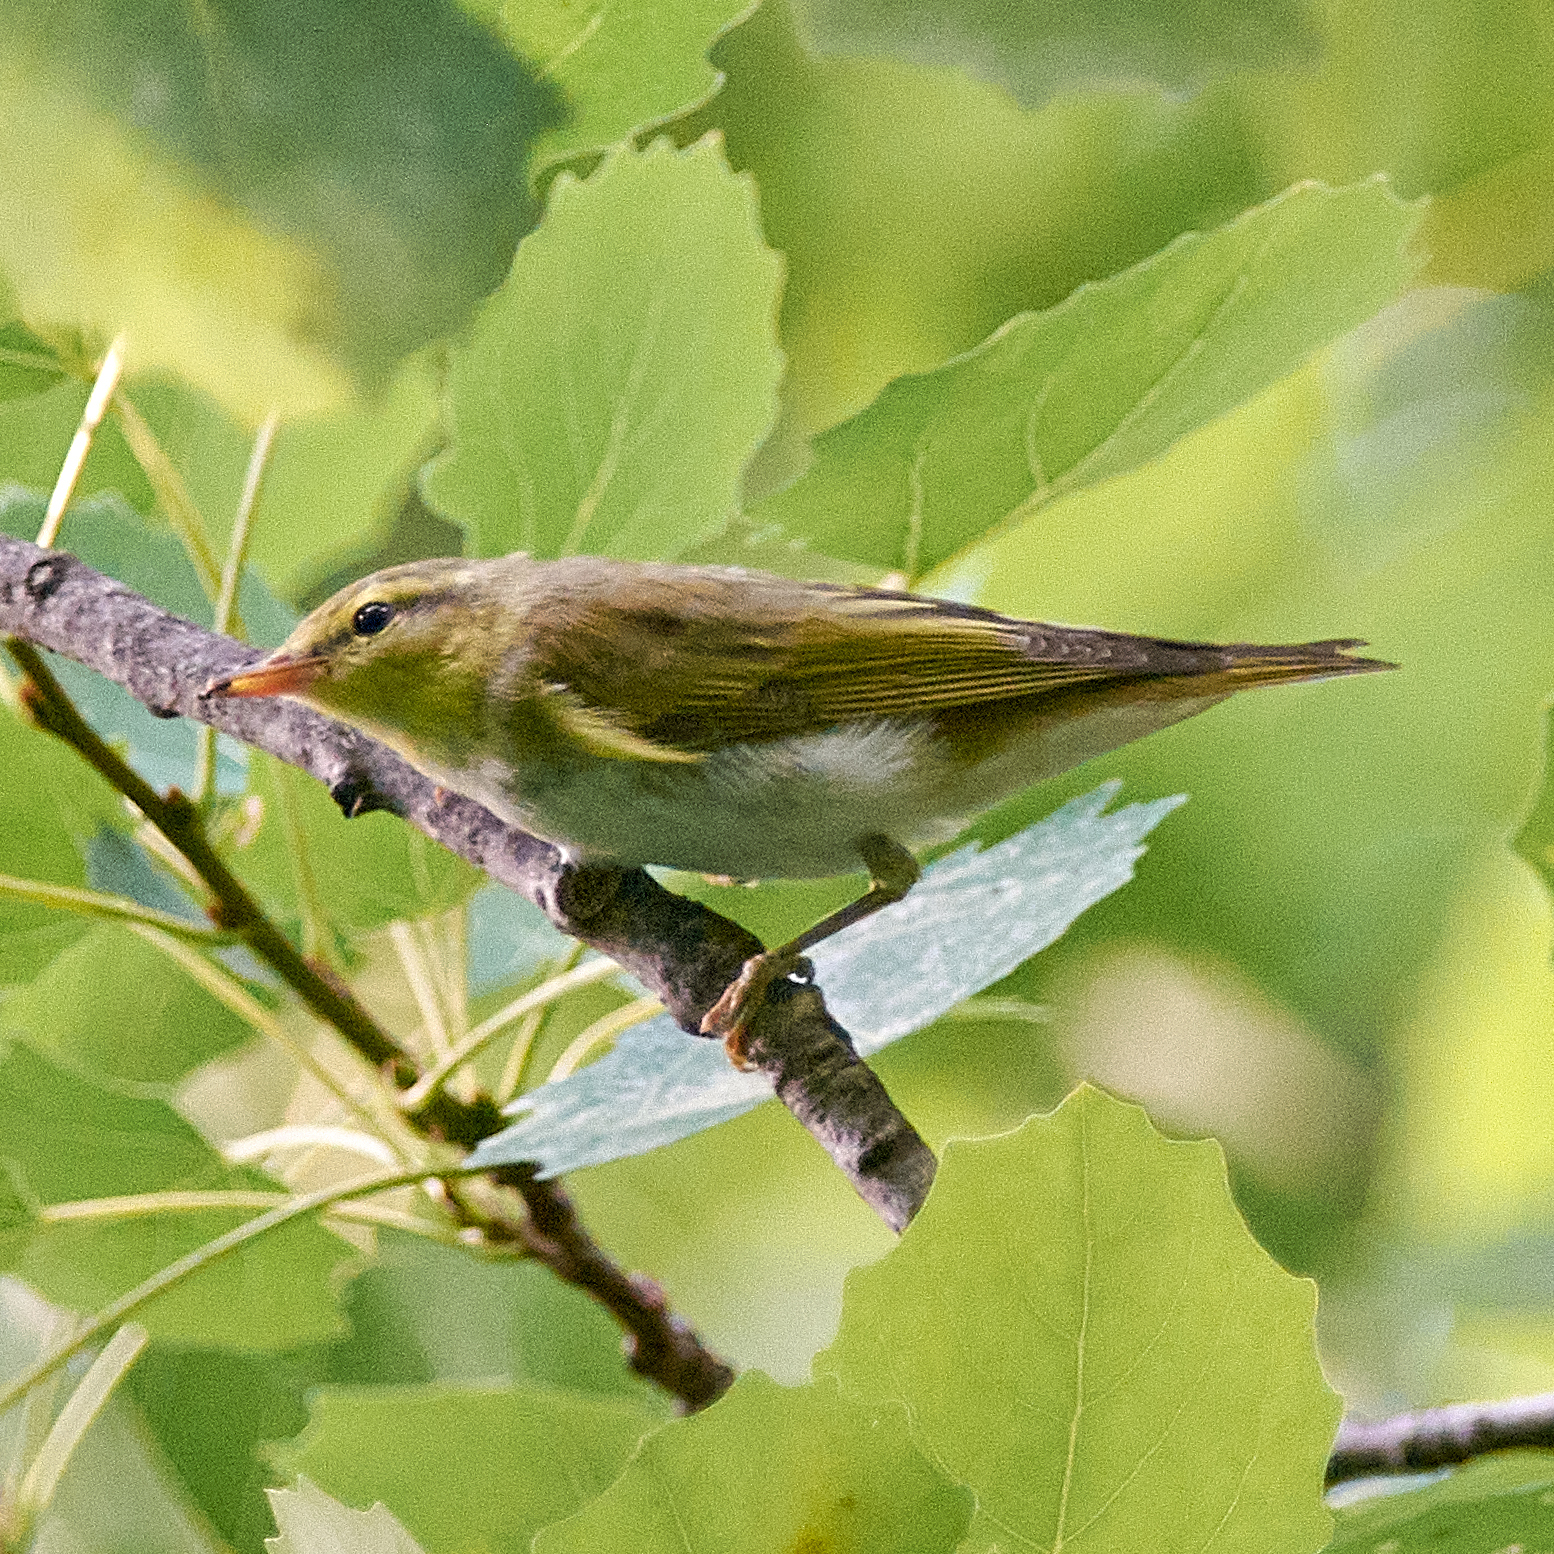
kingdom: Animalia
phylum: Chordata
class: Aves
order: Passeriformes
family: Phylloscopidae
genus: Phylloscopus
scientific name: Phylloscopus sibillatrix
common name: Wood warbler
